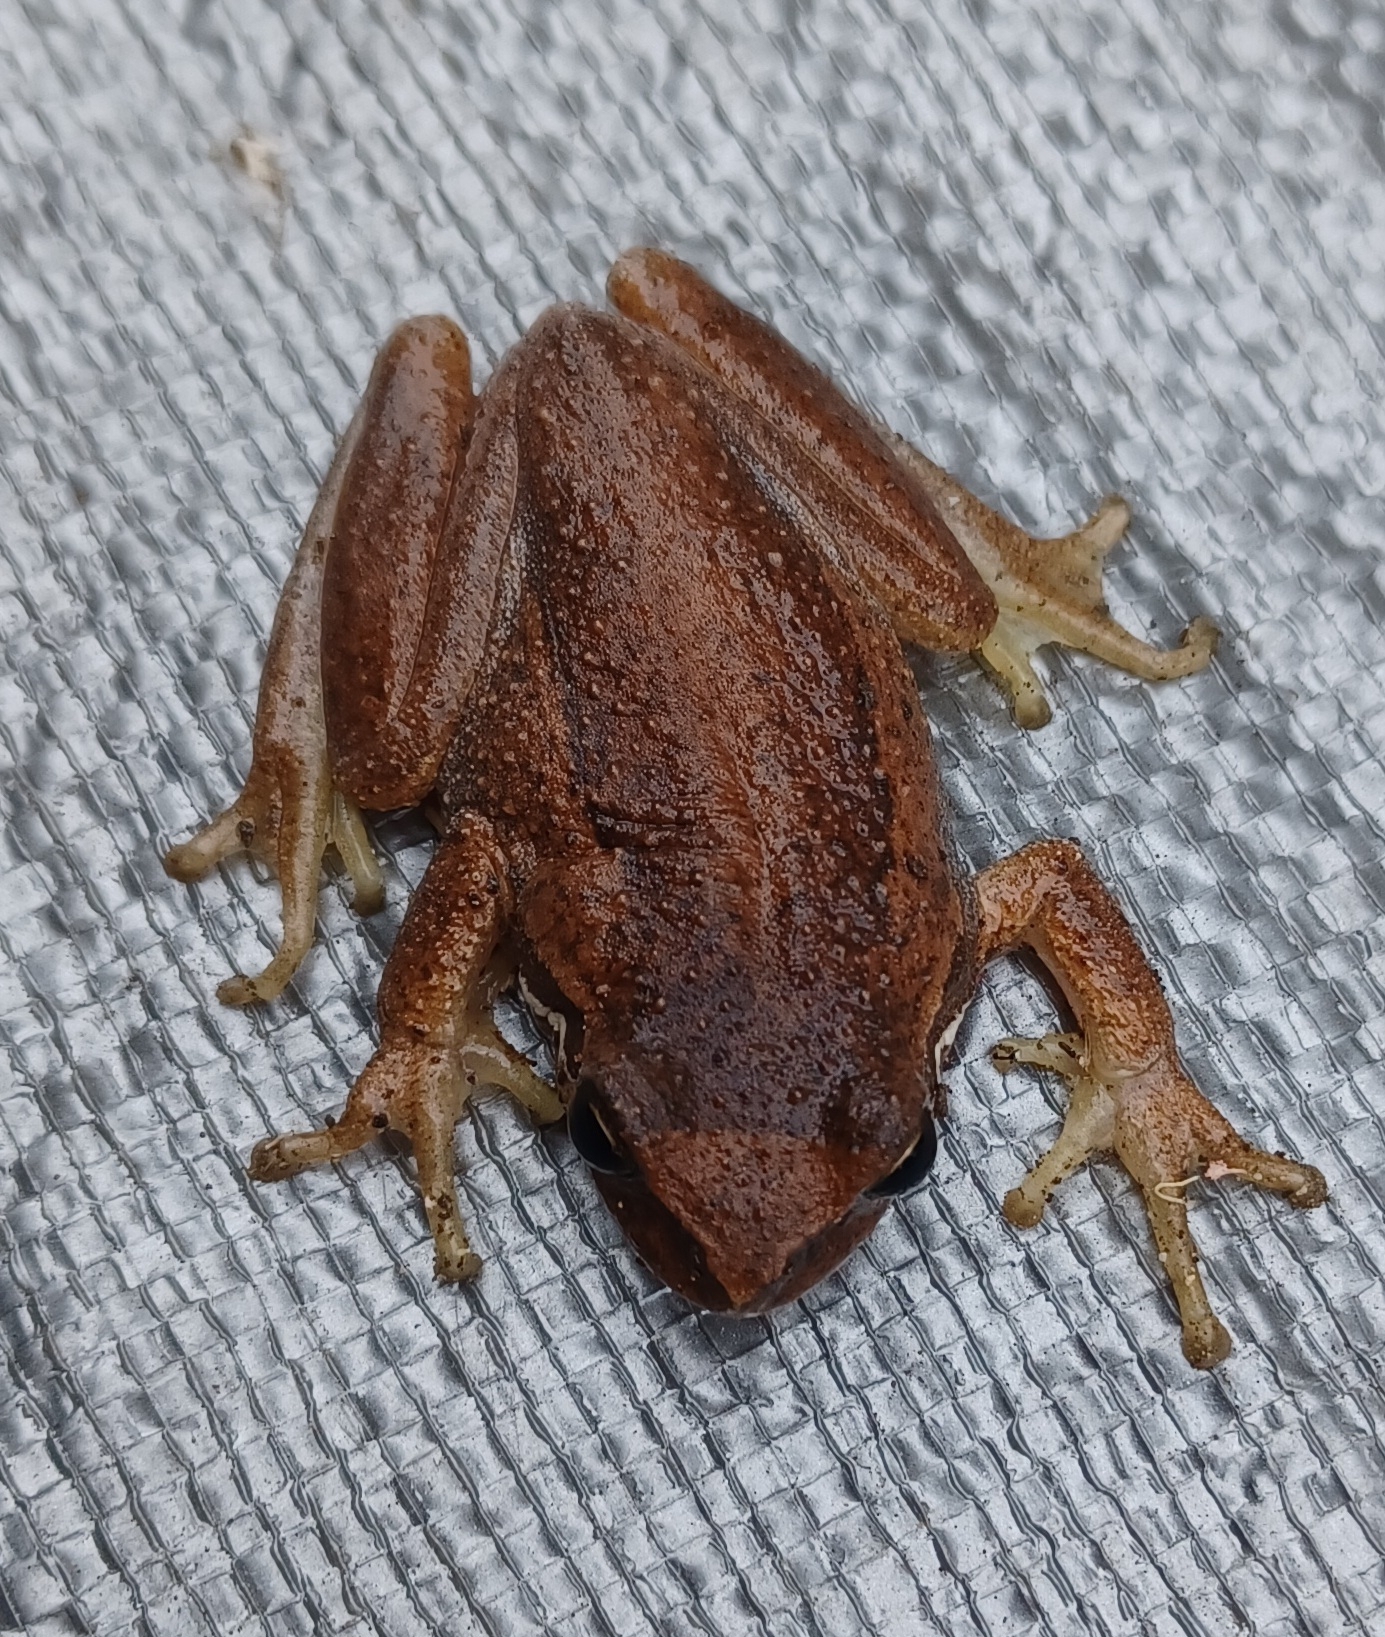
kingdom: Animalia
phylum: Chordata
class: Amphibia
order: Anura
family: Pelodryadidae
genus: Litoria
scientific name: Litoria ewingii
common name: Southern brown tree frog
